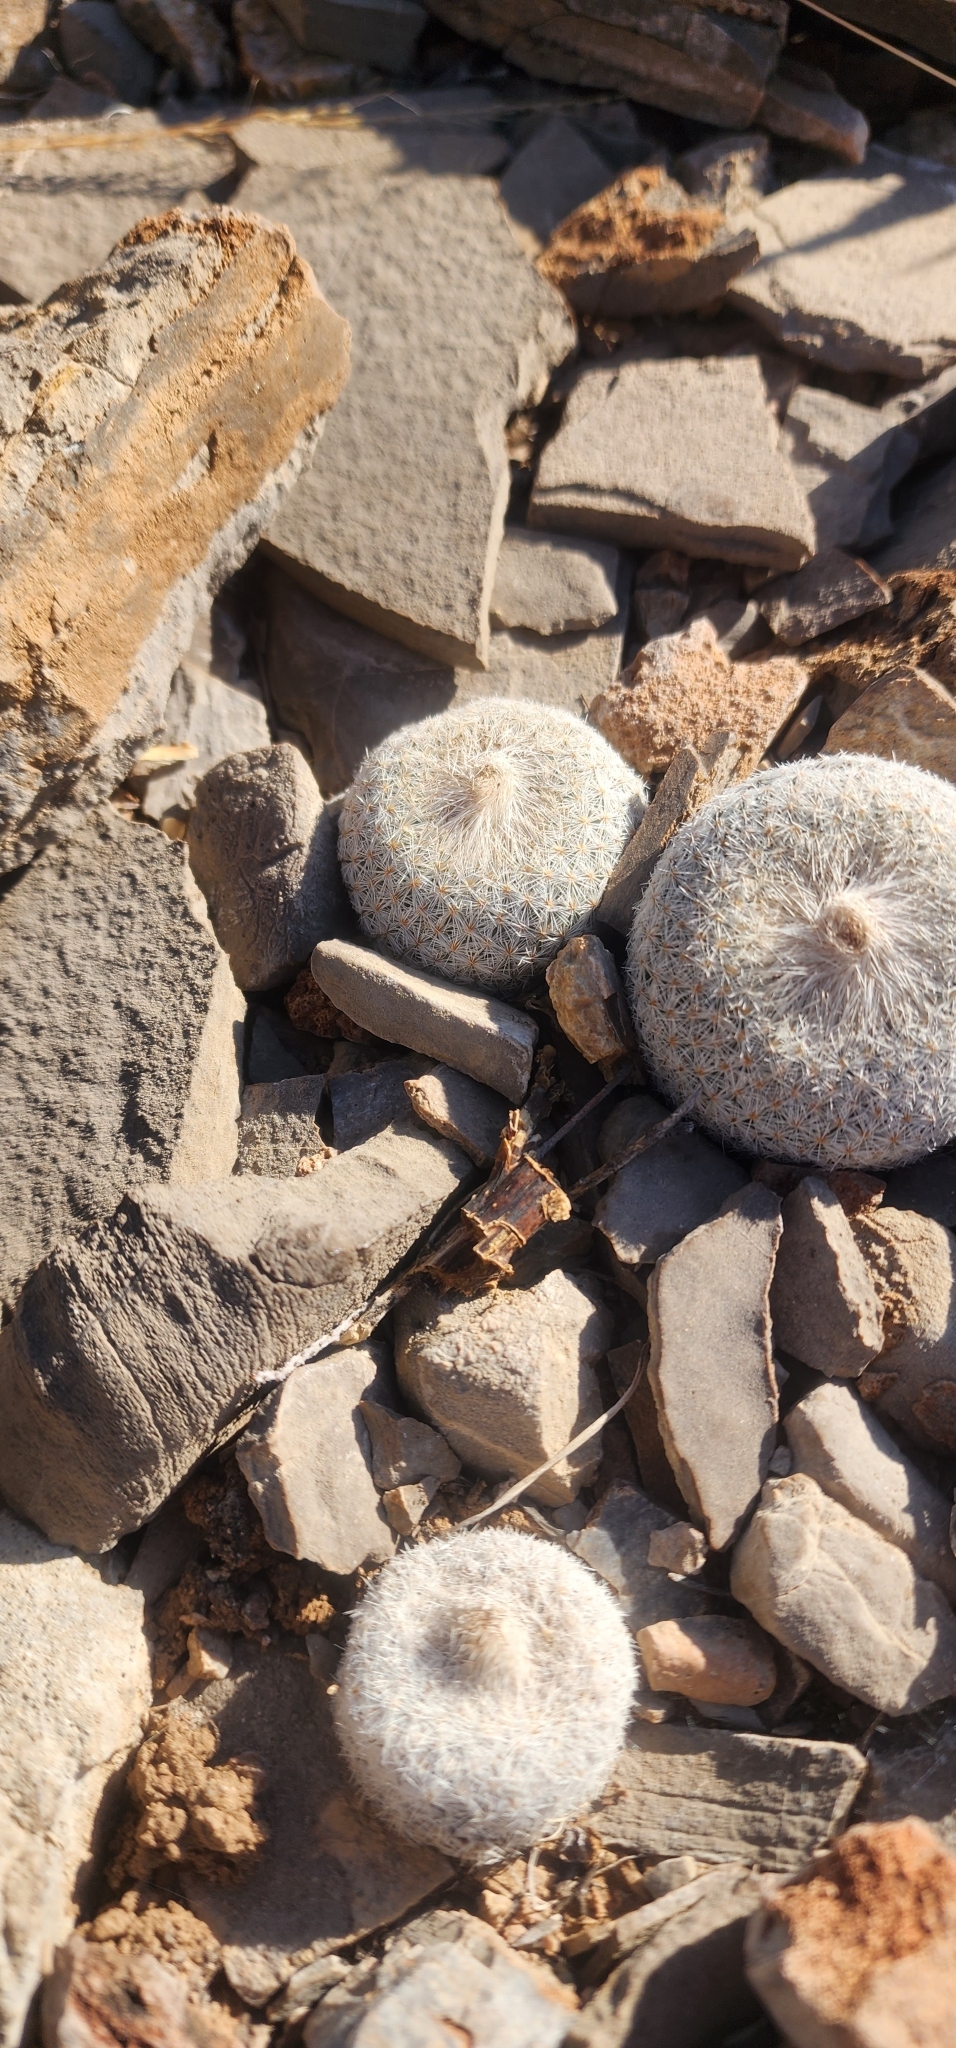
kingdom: Plantae
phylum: Tracheophyta
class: Magnoliopsida
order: Caryophyllales
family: Cactaceae
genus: Epithelantha
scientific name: Epithelantha micromeris
